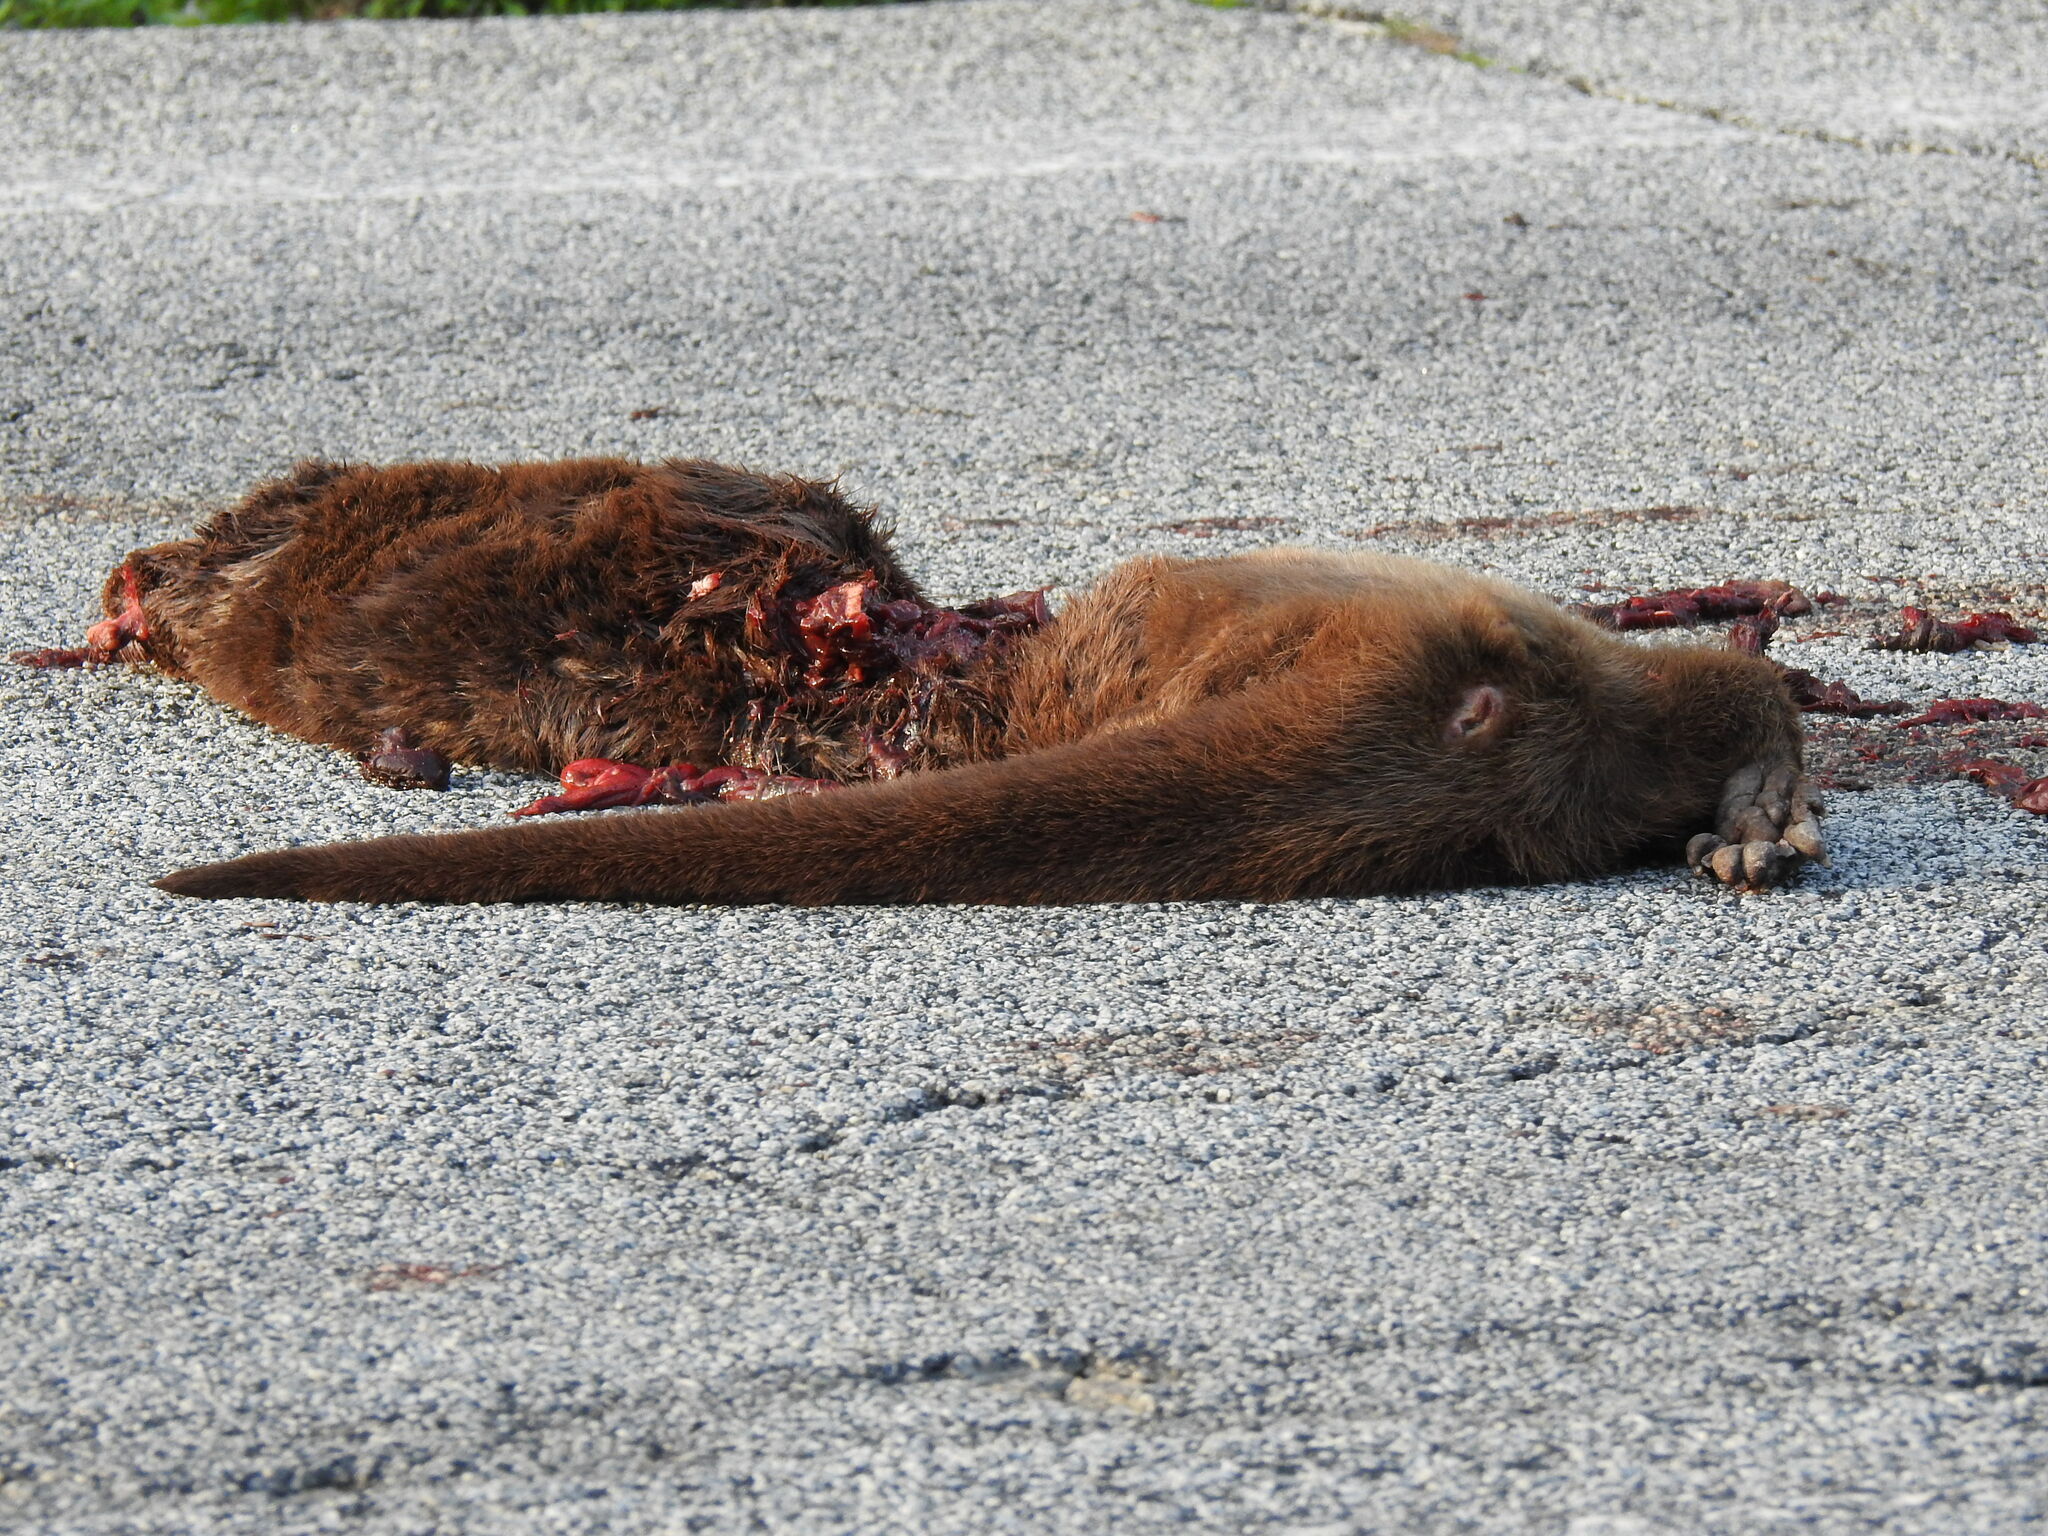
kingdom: Animalia
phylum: Chordata
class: Mammalia
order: Carnivora
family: Mustelidae
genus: Lutra
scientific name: Lutra lutra
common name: European otter
